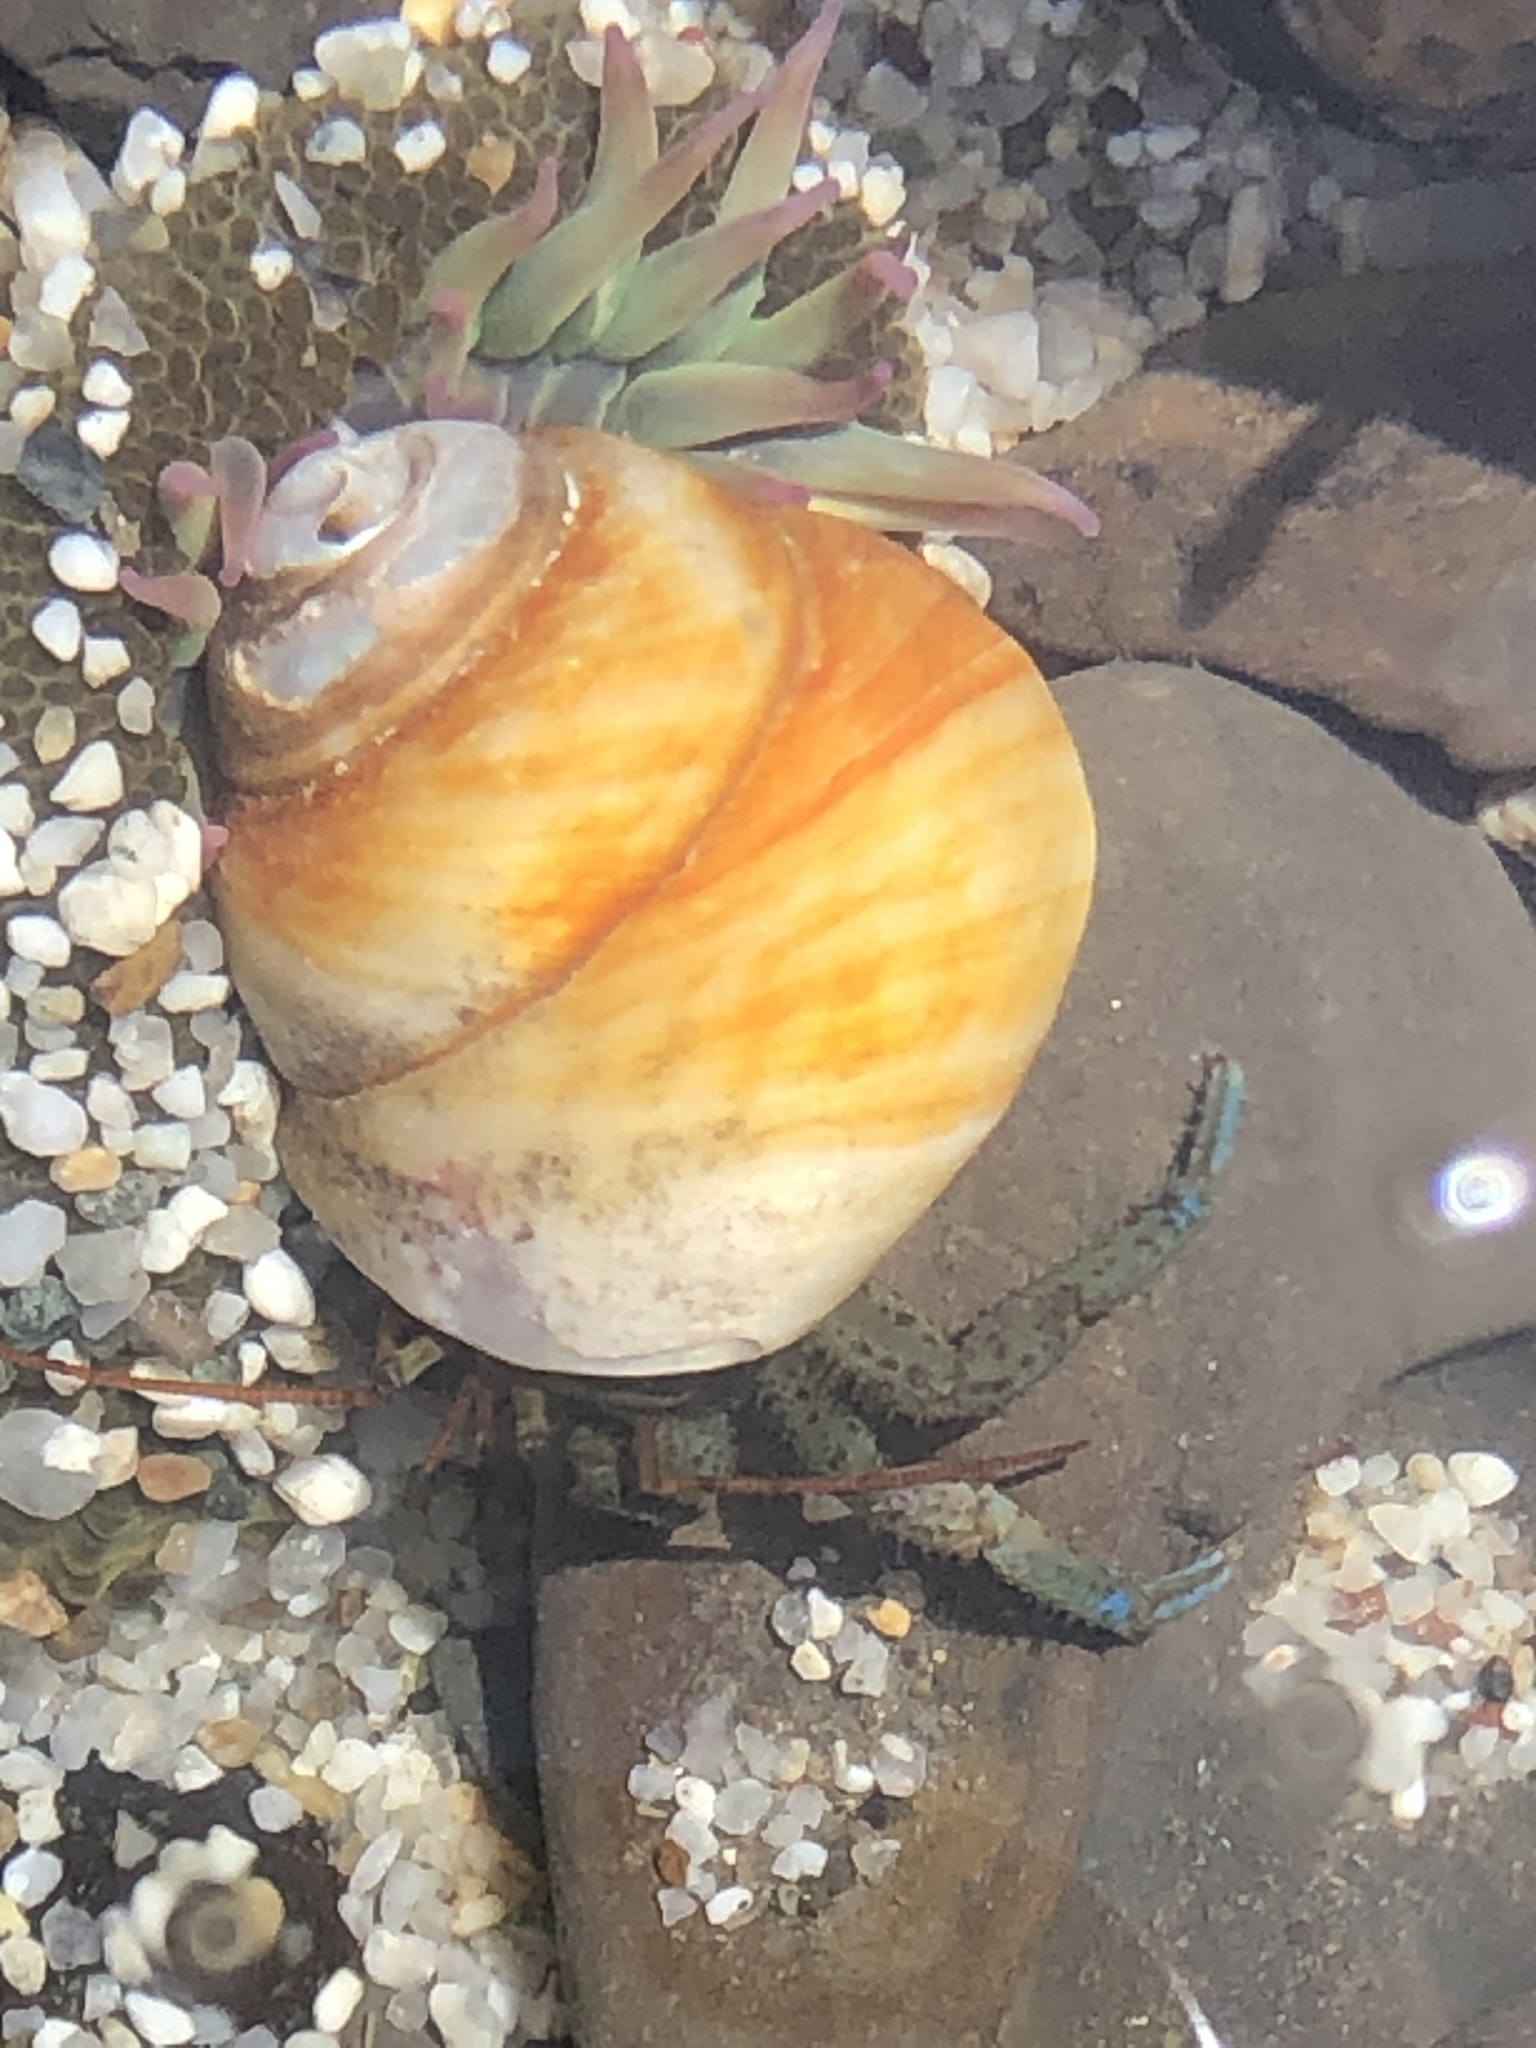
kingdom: Animalia
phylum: Mollusca
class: Gastropoda
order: Trochida
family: Tegulidae
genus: Tegula
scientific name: Tegula brunnea
